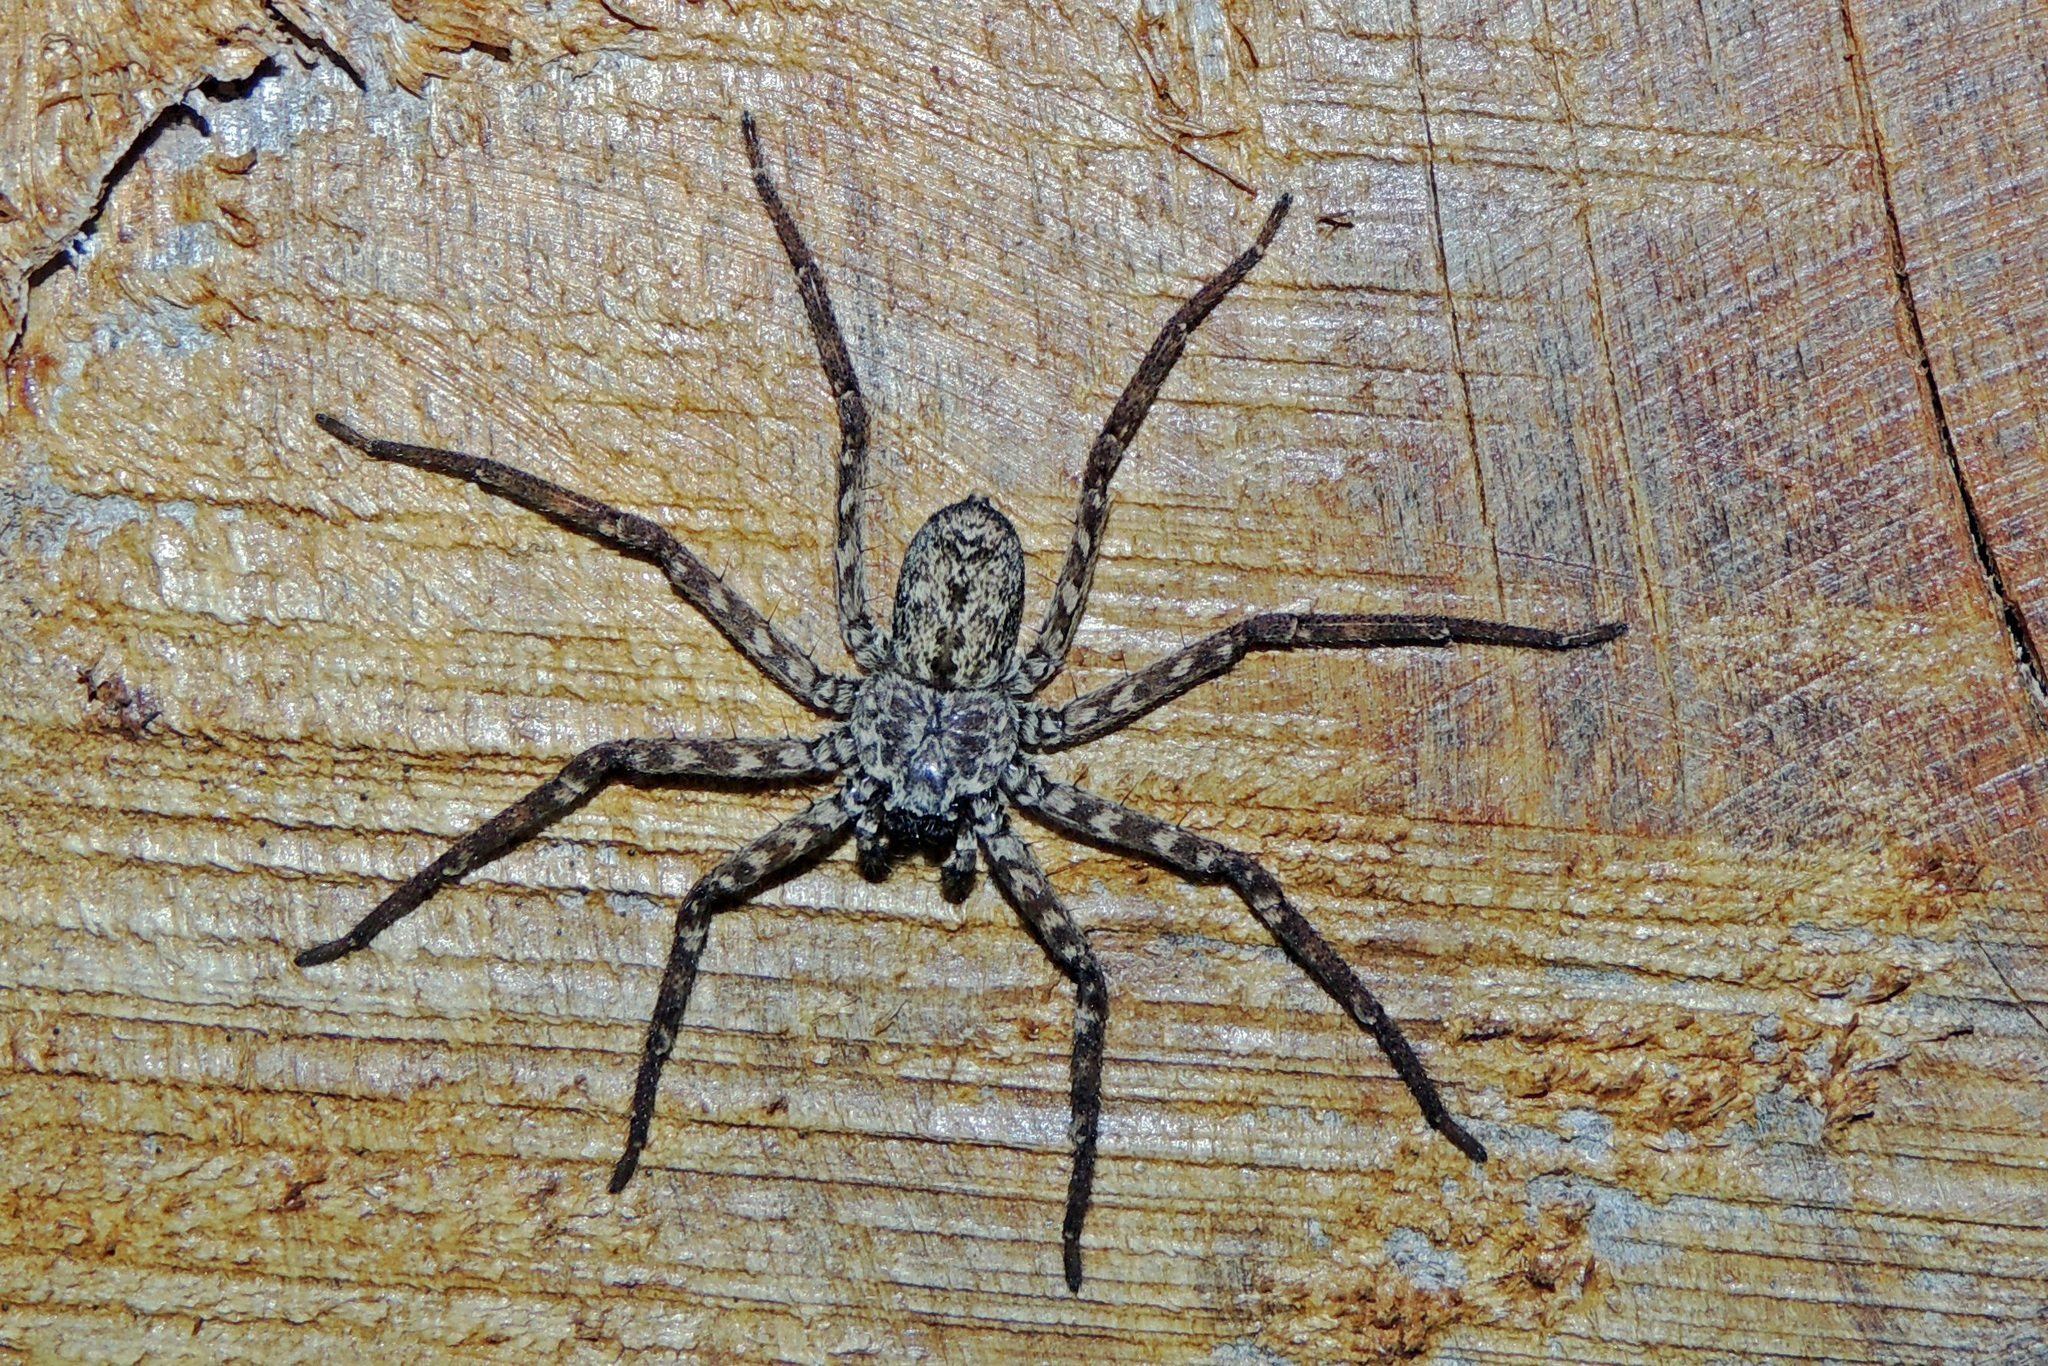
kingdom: Animalia
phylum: Arthropoda
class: Arachnida
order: Araneae
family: Selenopidae
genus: Selenops
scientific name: Selenops
